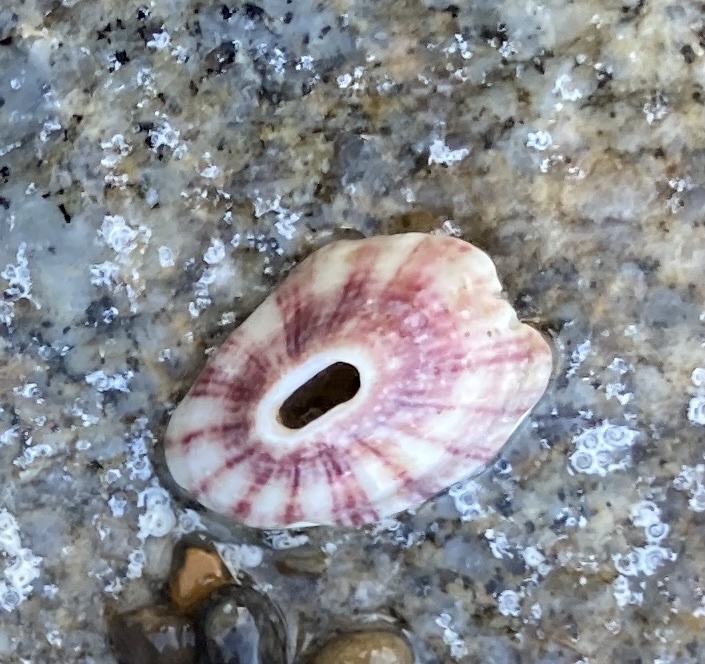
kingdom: Animalia
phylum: Mollusca
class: Gastropoda
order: Lepetellida
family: Fissurellidae
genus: Fissurella
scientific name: Fissurella volcano
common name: Volcano keyhole limpet
